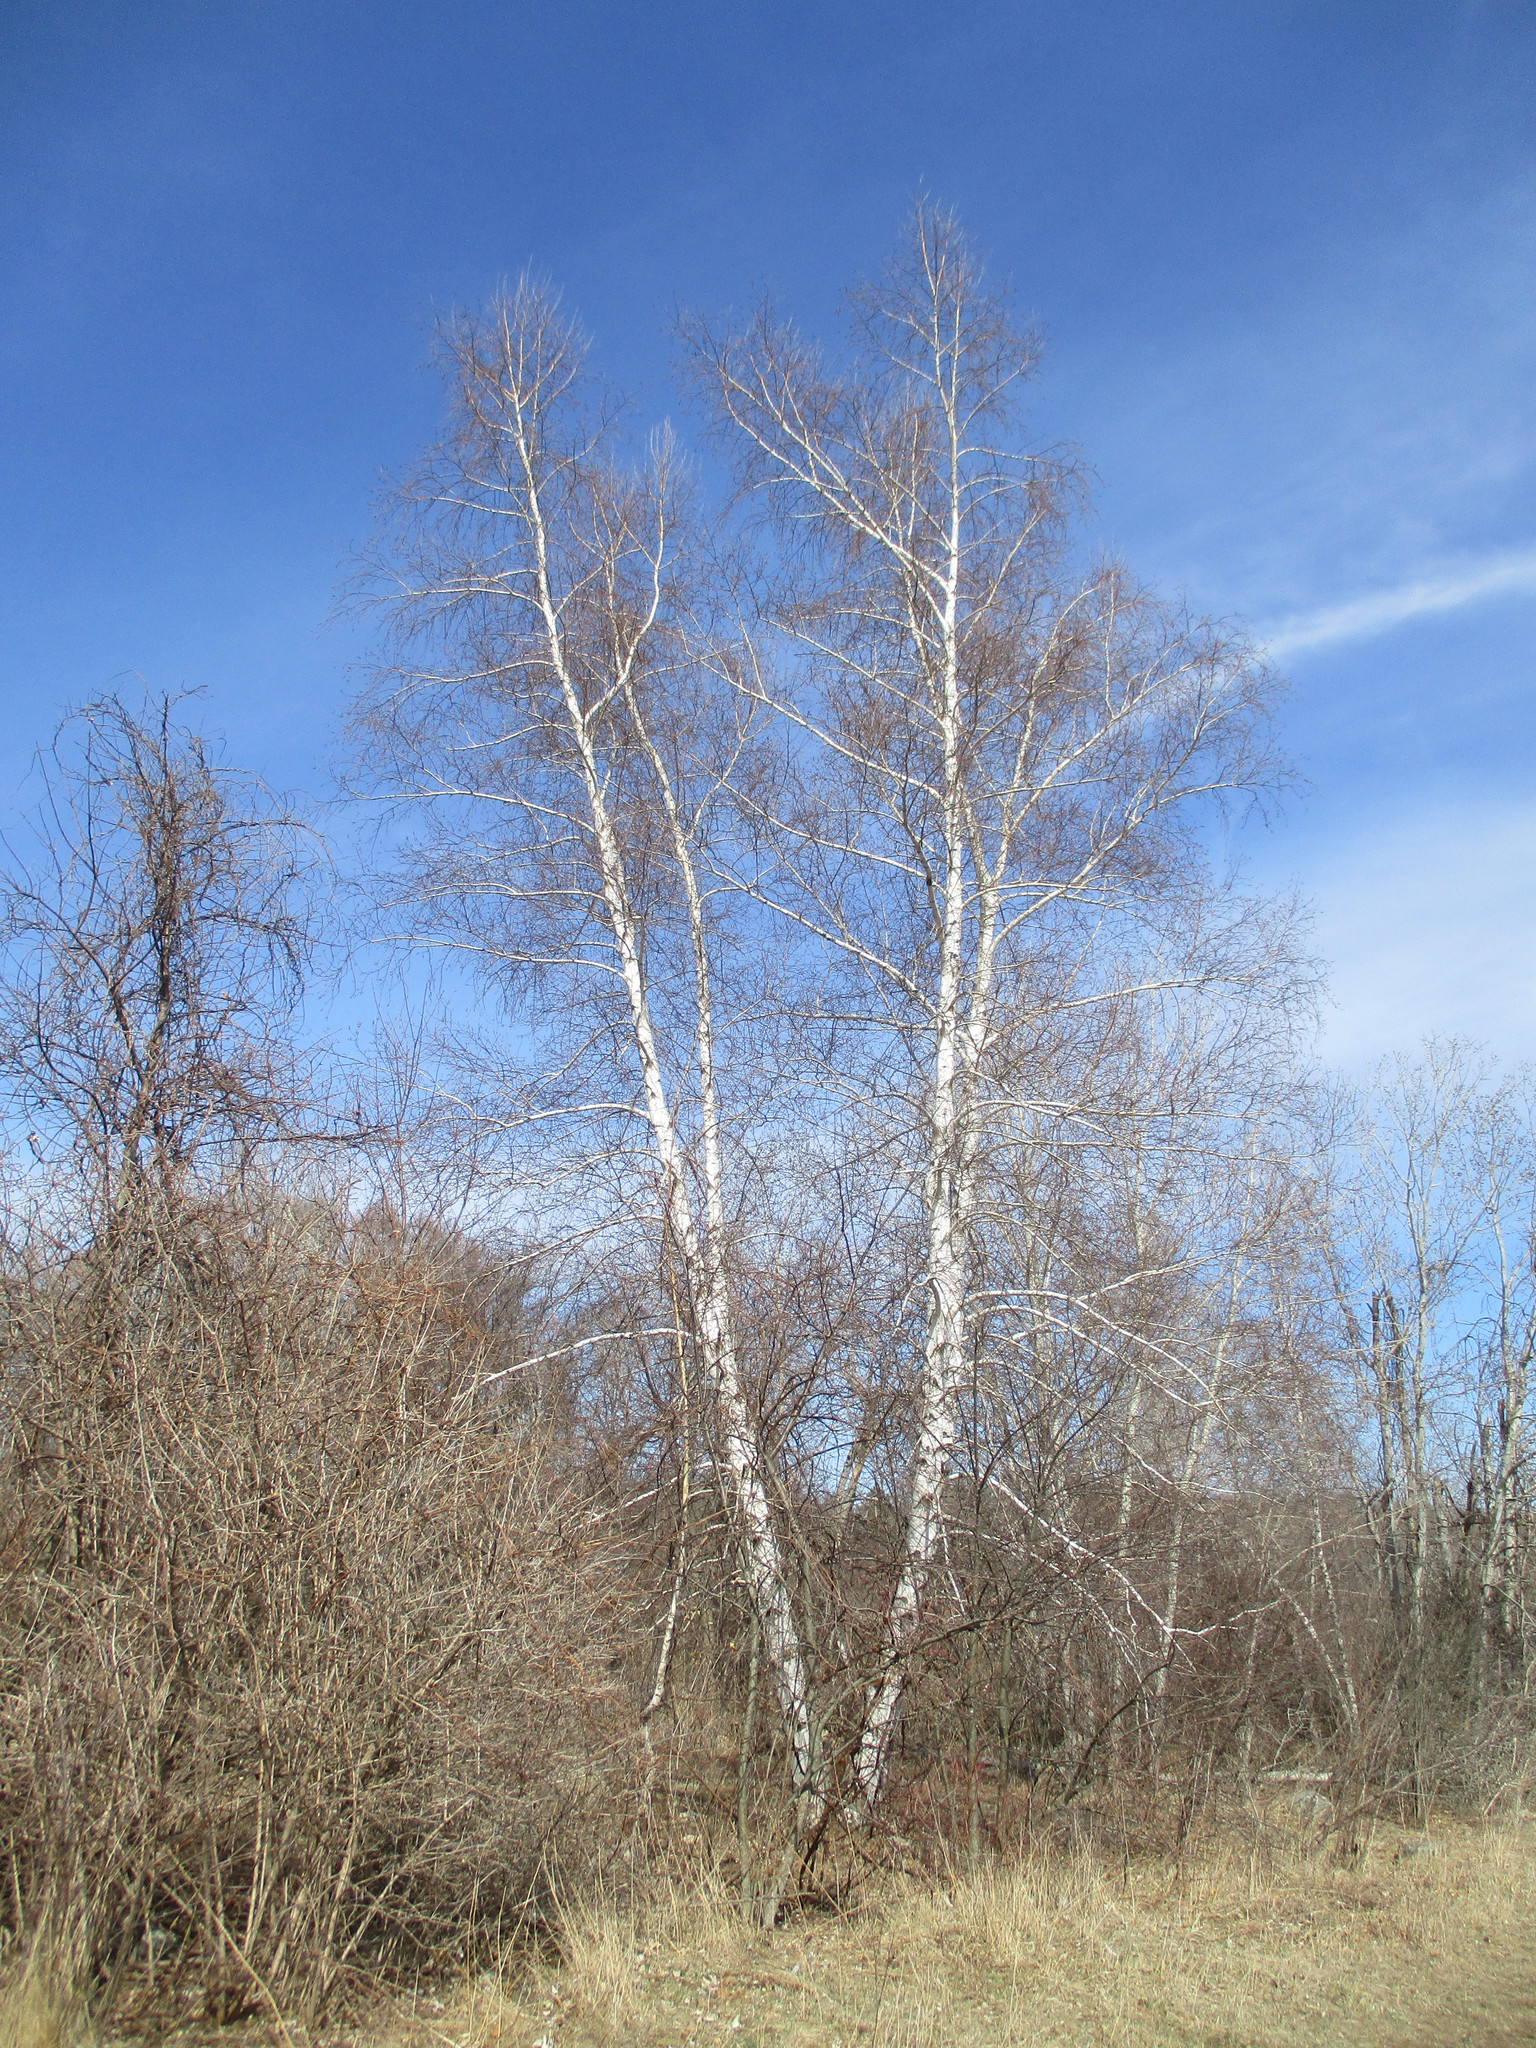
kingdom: Plantae
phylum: Tracheophyta
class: Magnoliopsida
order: Fagales
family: Betulaceae
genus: Betula
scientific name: Betula papyrifera
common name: Paper birch
